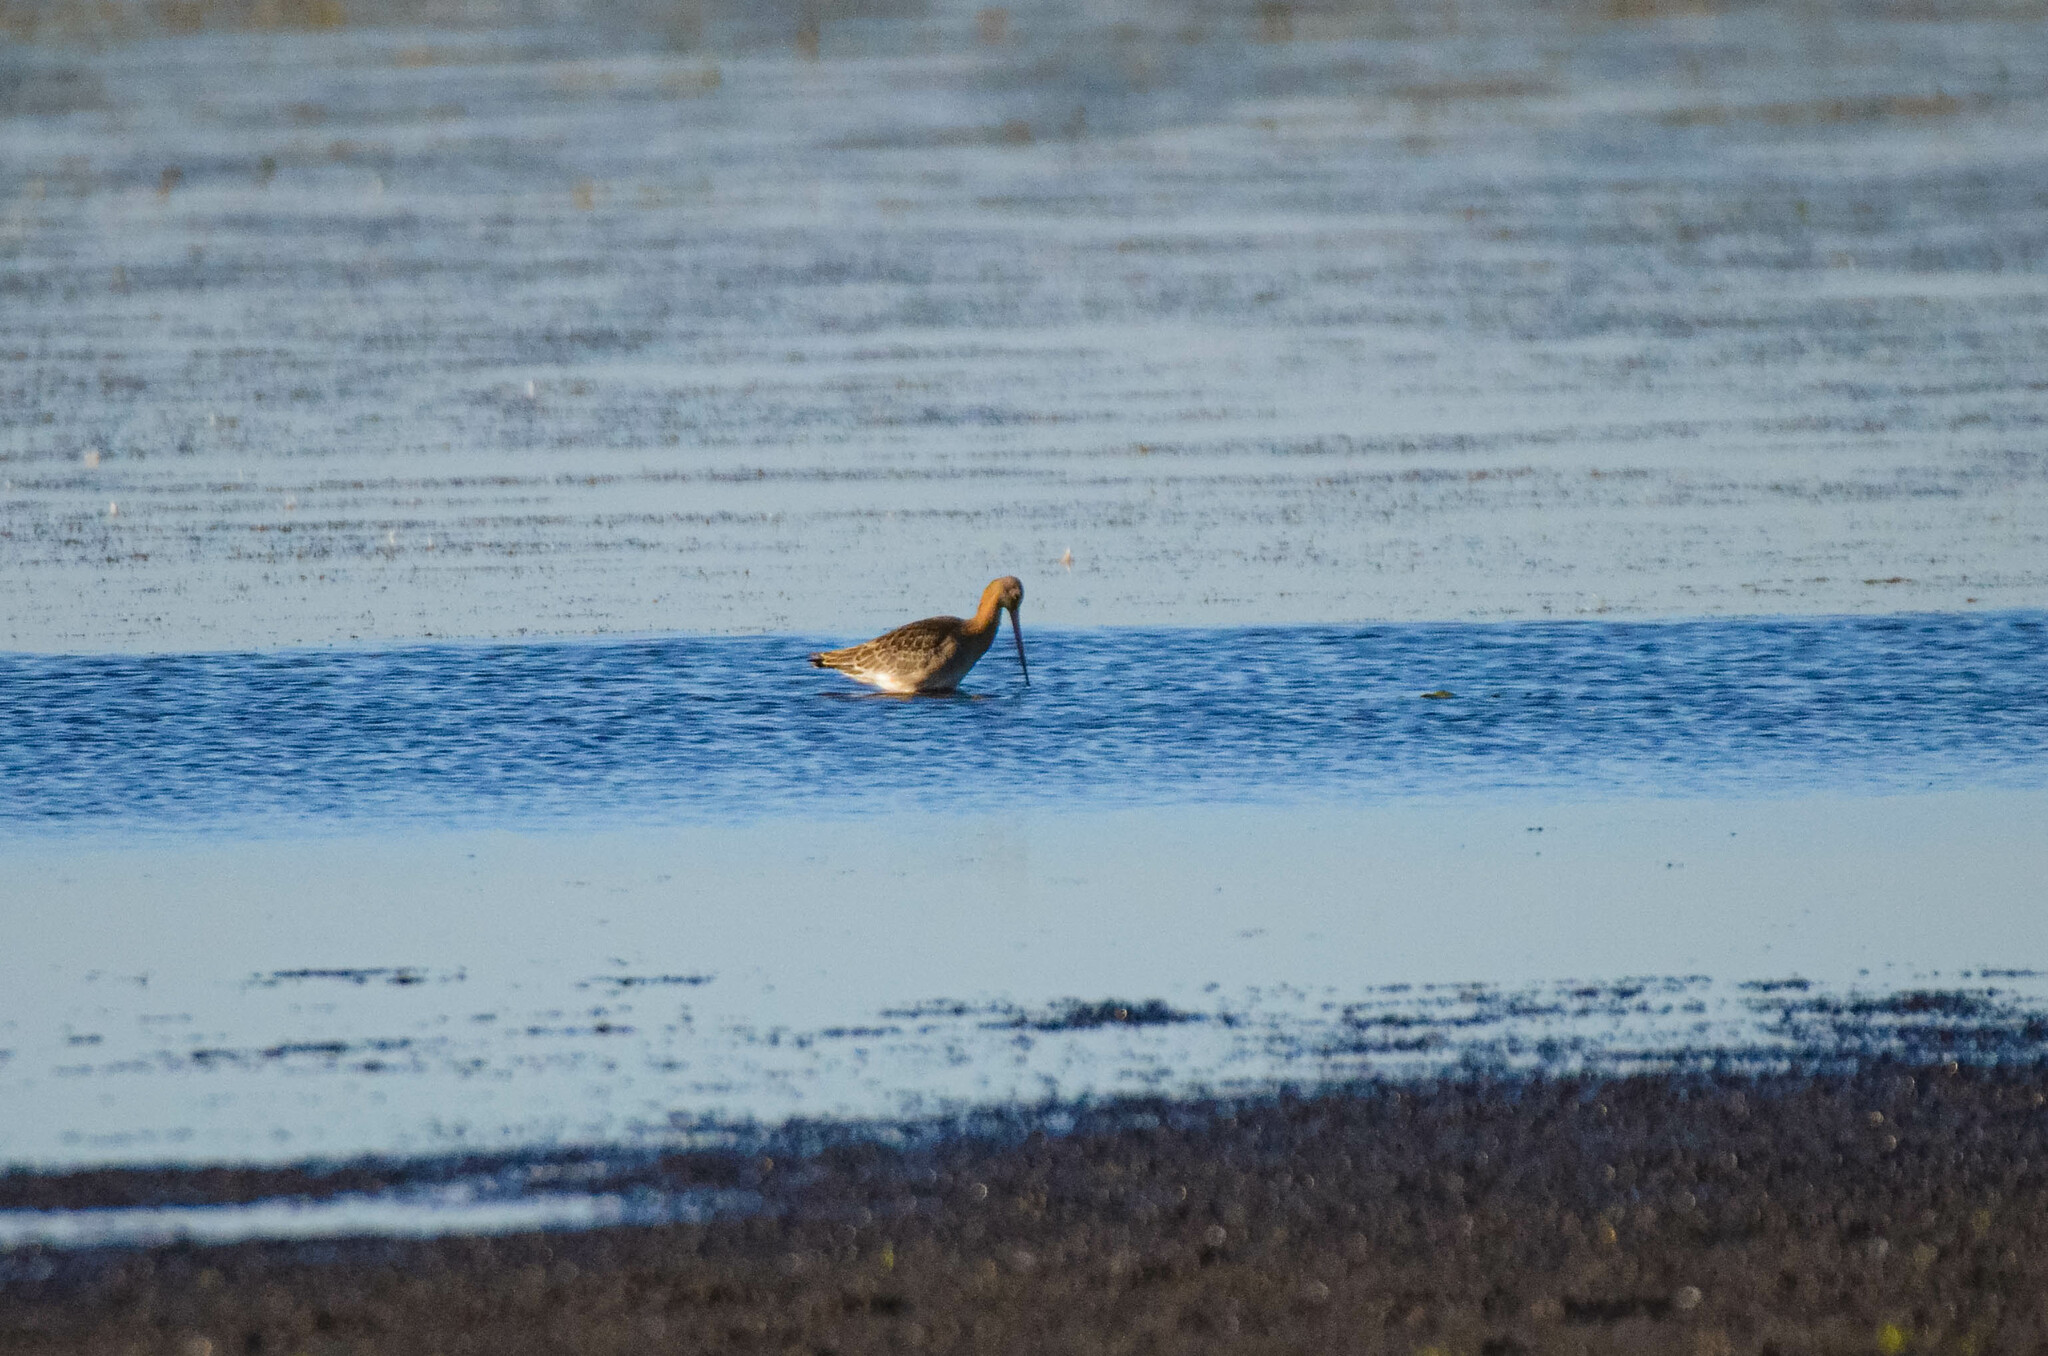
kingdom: Animalia
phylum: Chordata
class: Aves
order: Charadriiformes
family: Scolopacidae
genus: Limosa
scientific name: Limosa limosa
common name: Black-tailed godwit
